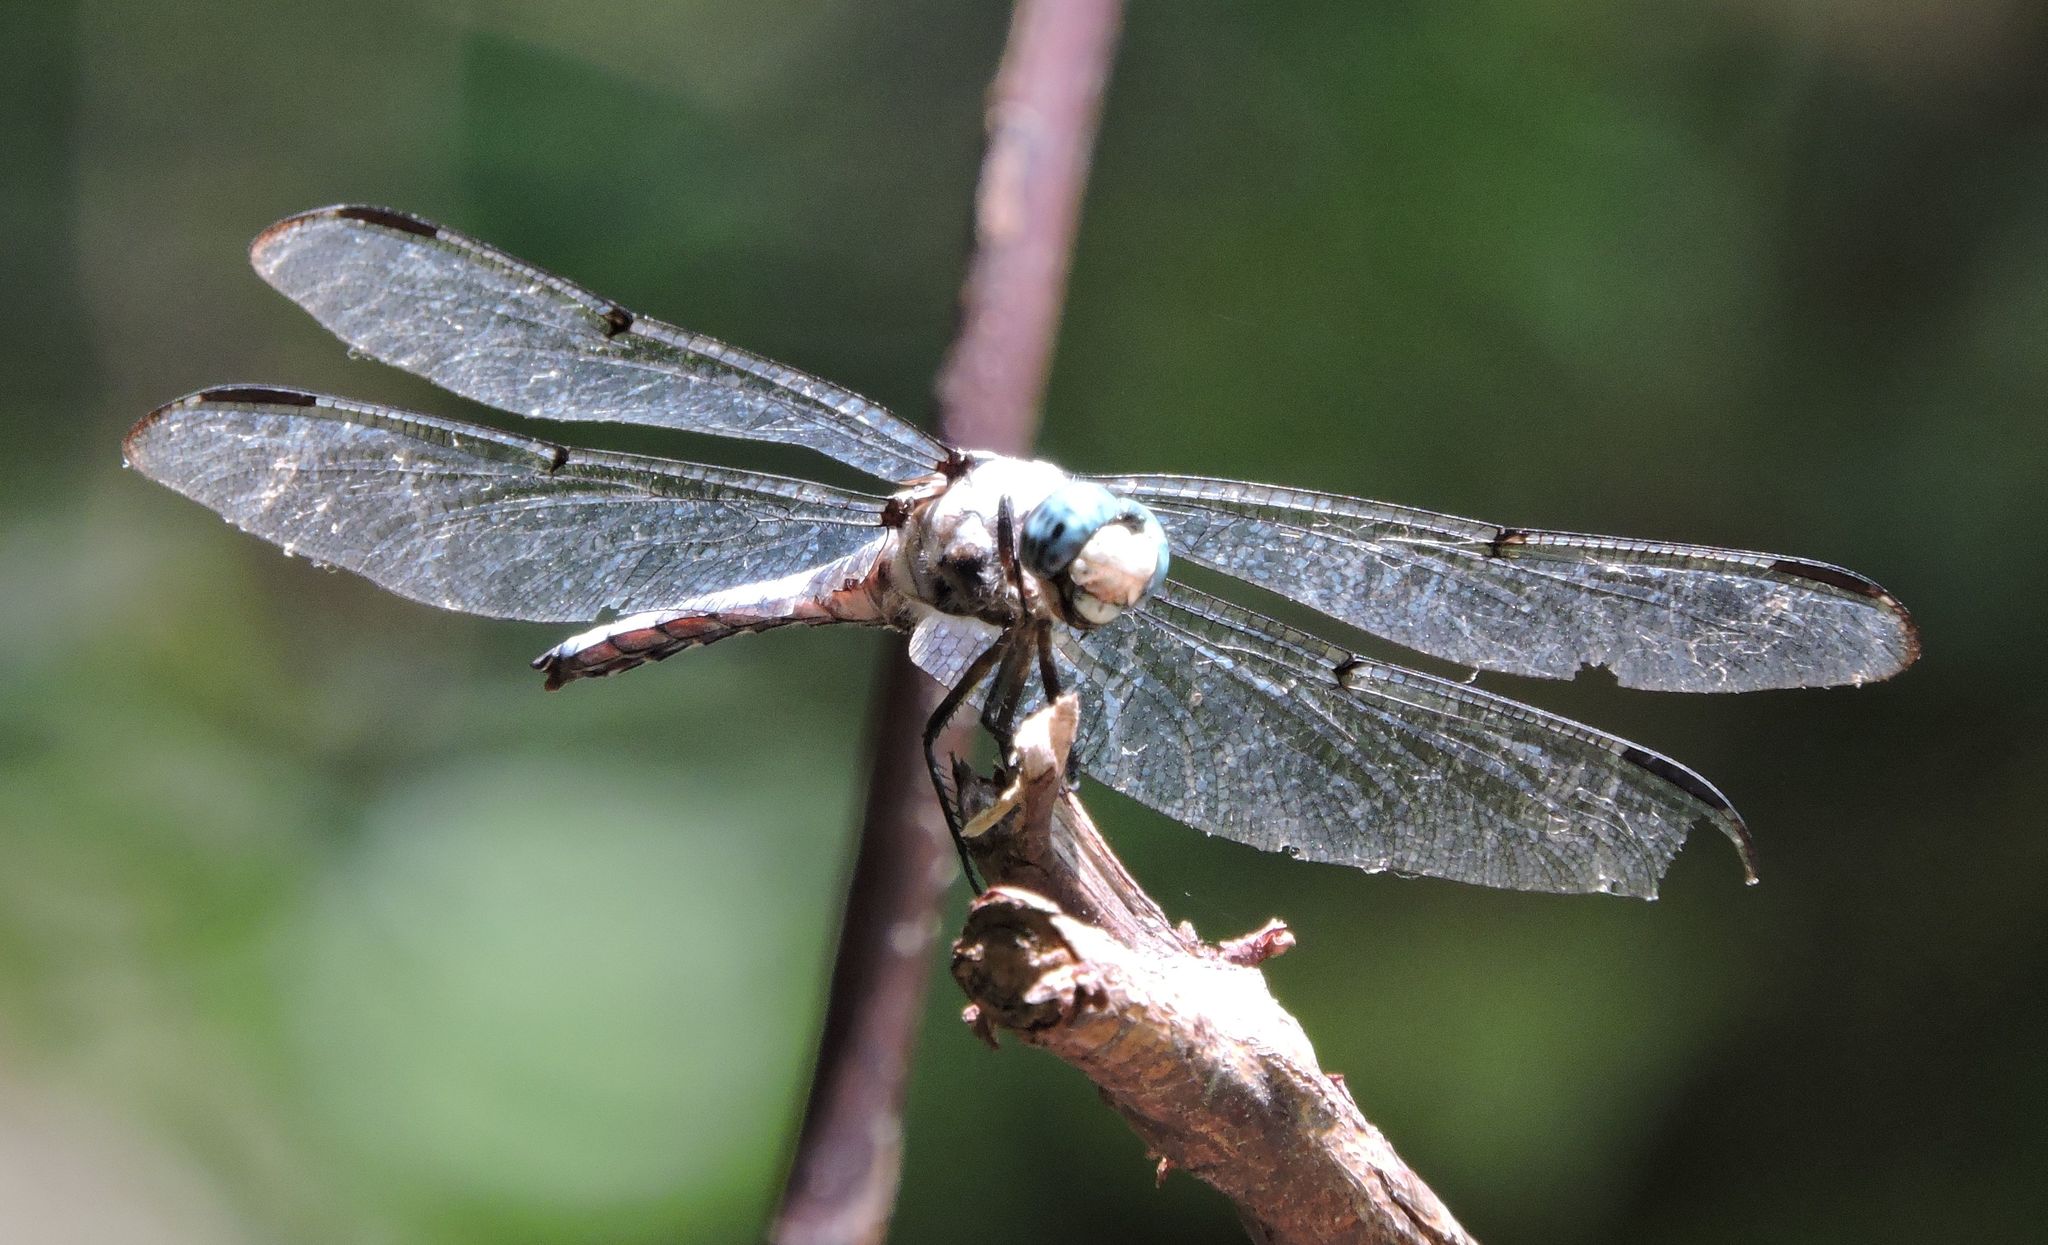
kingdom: Animalia
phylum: Arthropoda
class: Insecta
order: Odonata
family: Libellulidae
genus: Libellula
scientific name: Libellula vibrans
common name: Great blue skimmer
